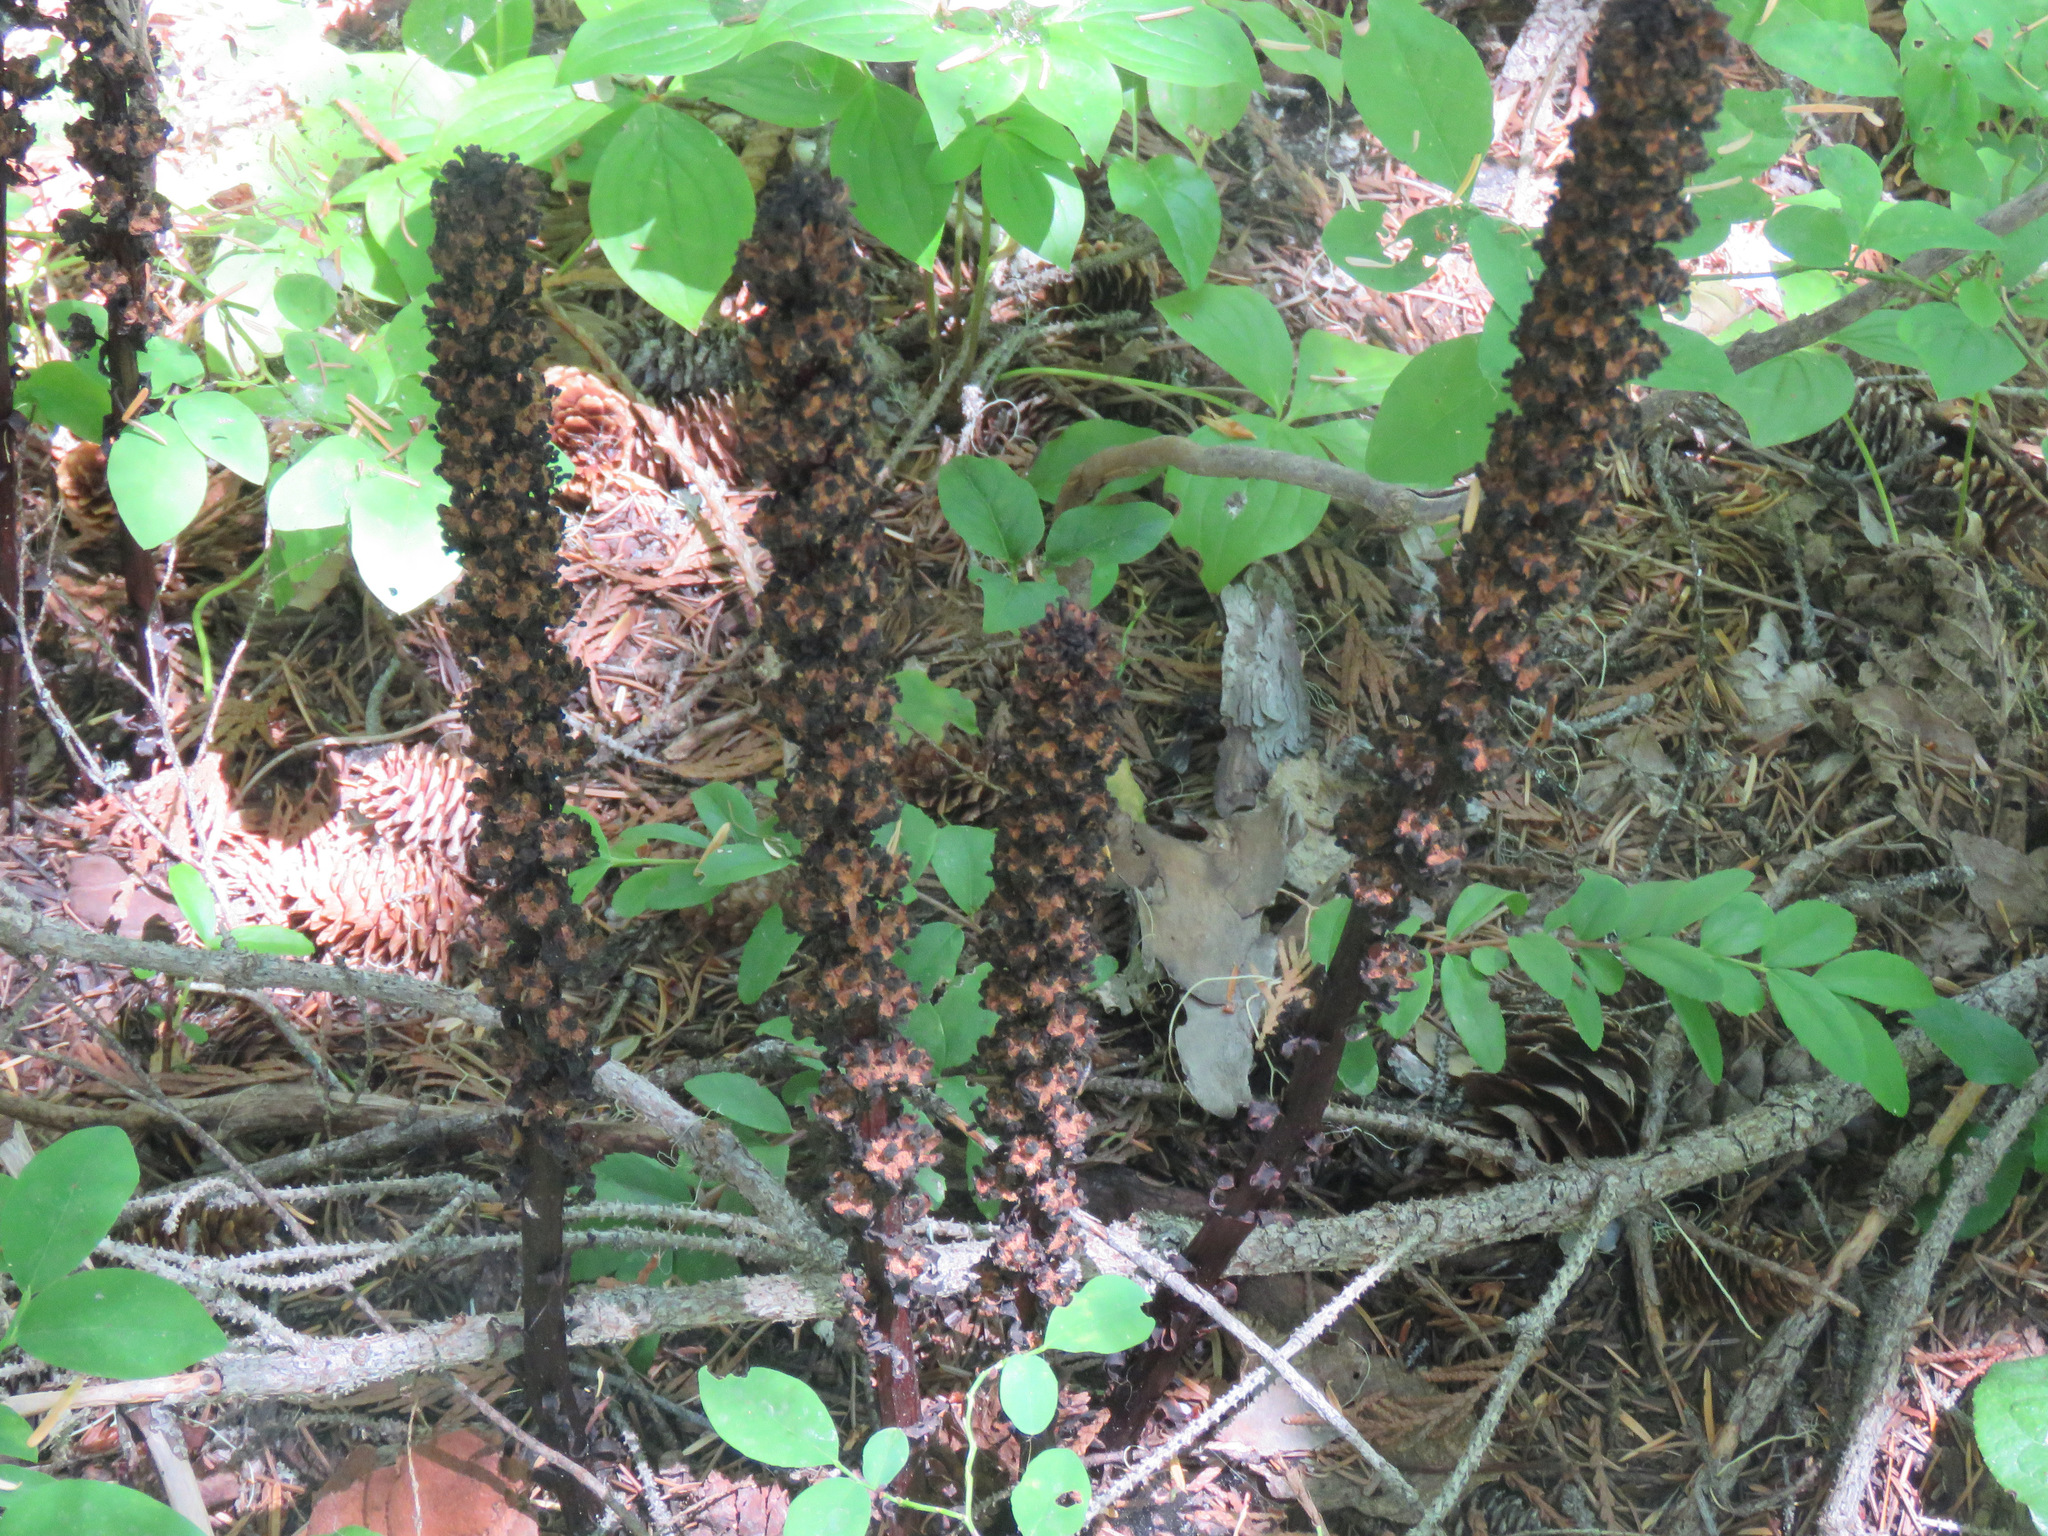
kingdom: Plantae
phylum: Tracheophyta
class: Magnoliopsida
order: Ericales
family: Ericaceae
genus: Allotropa
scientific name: Allotropa virgata
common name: Candy-striped allotropa
